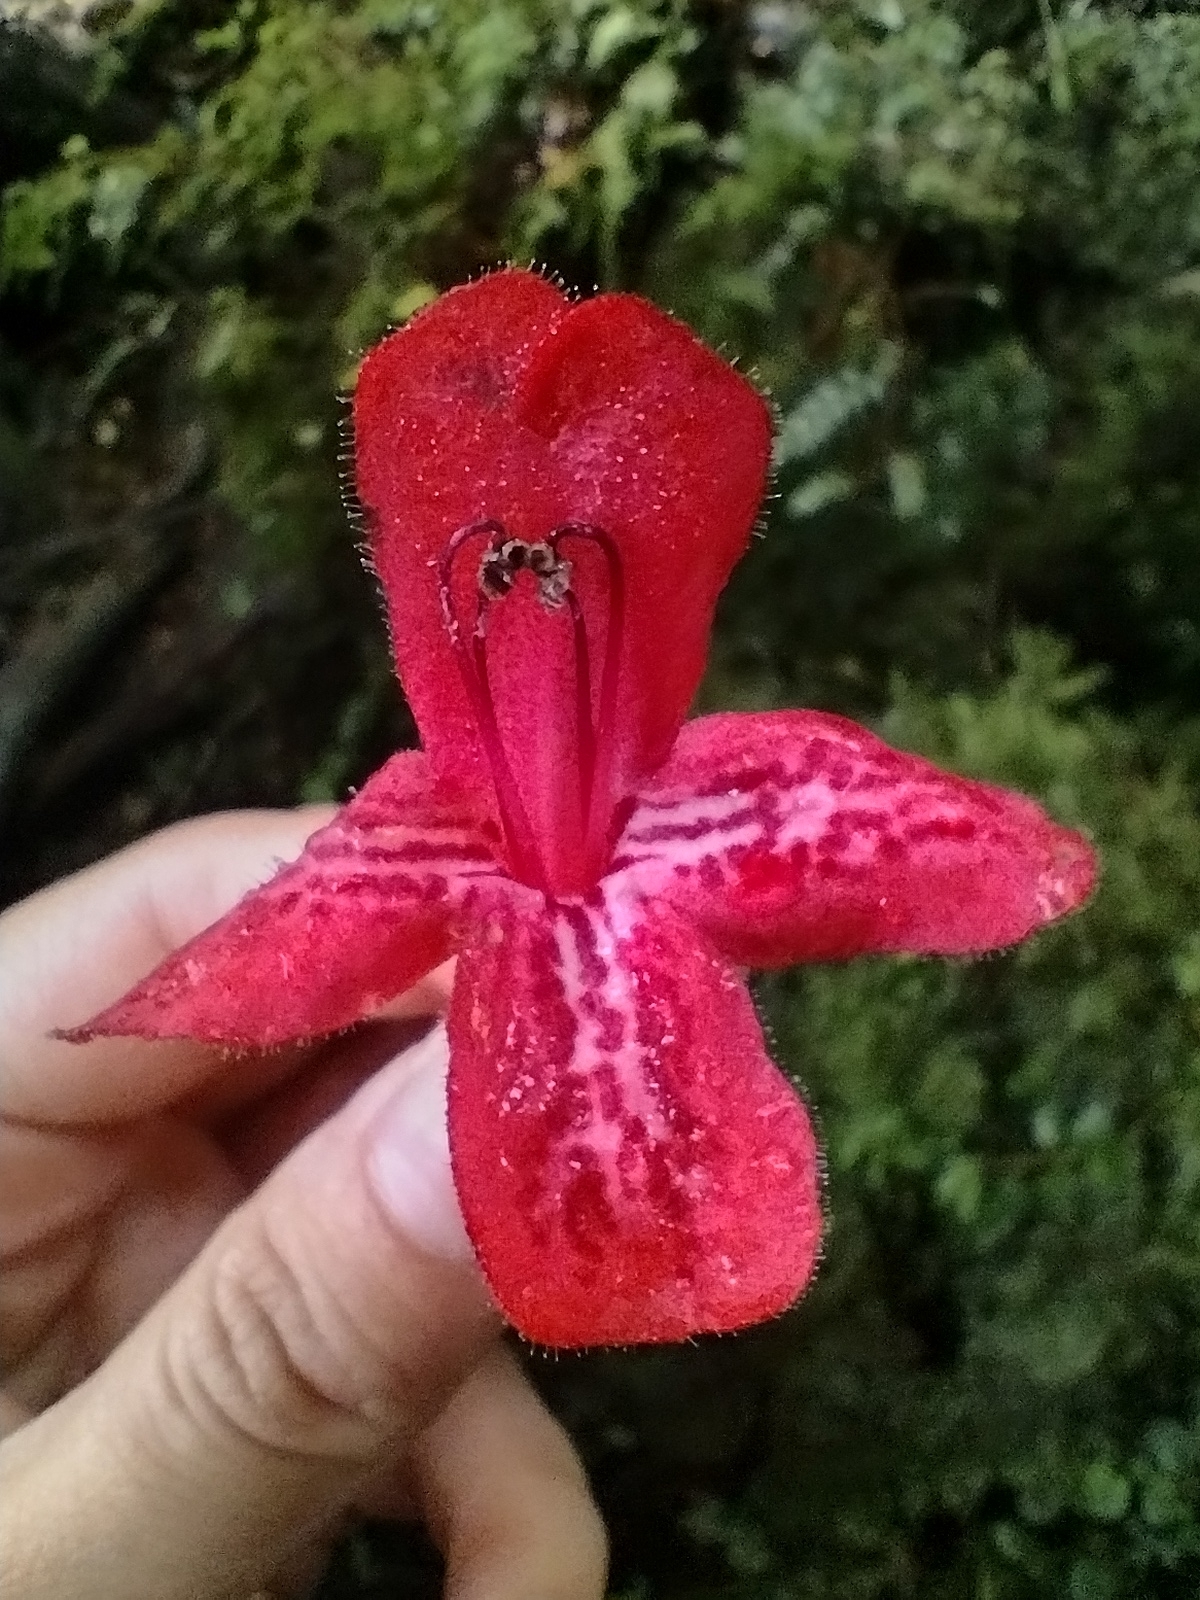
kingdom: Plantae
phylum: Tracheophyta
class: Magnoliopsida
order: Lamiales
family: Gesneriaceae
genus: Asteranthera
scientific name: Asteranthera ovata
